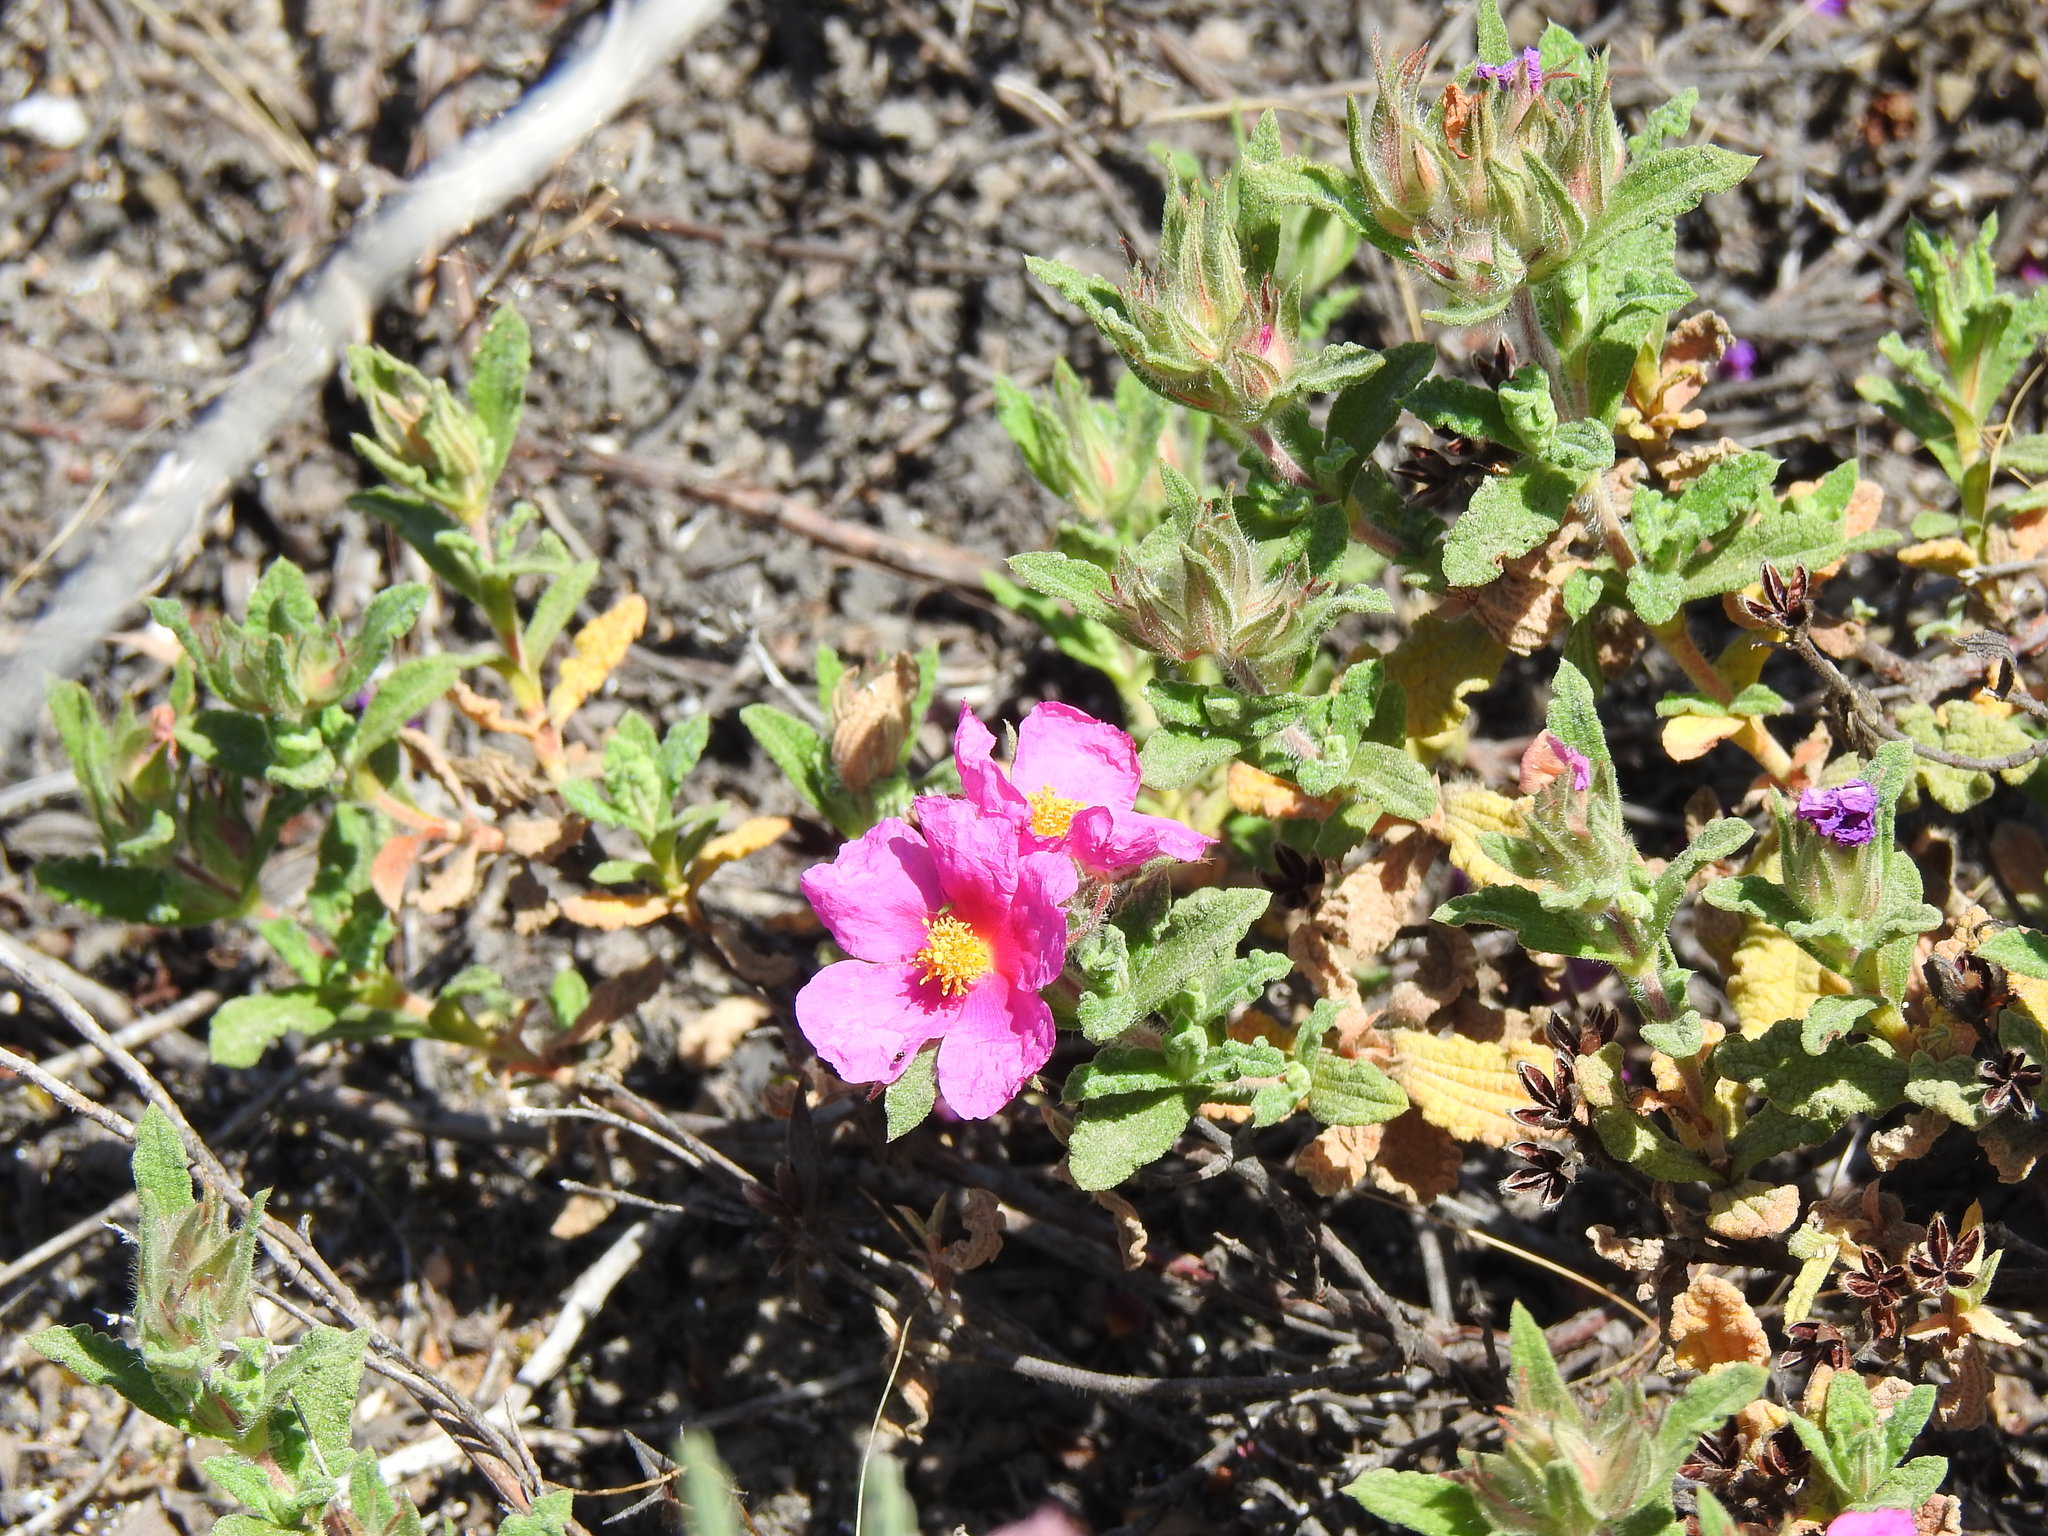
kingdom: Plantae
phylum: Tracheophyta
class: Magnoliopsida
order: Malvales
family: Cistaceae
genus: Cistus
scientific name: Cistus crispus
